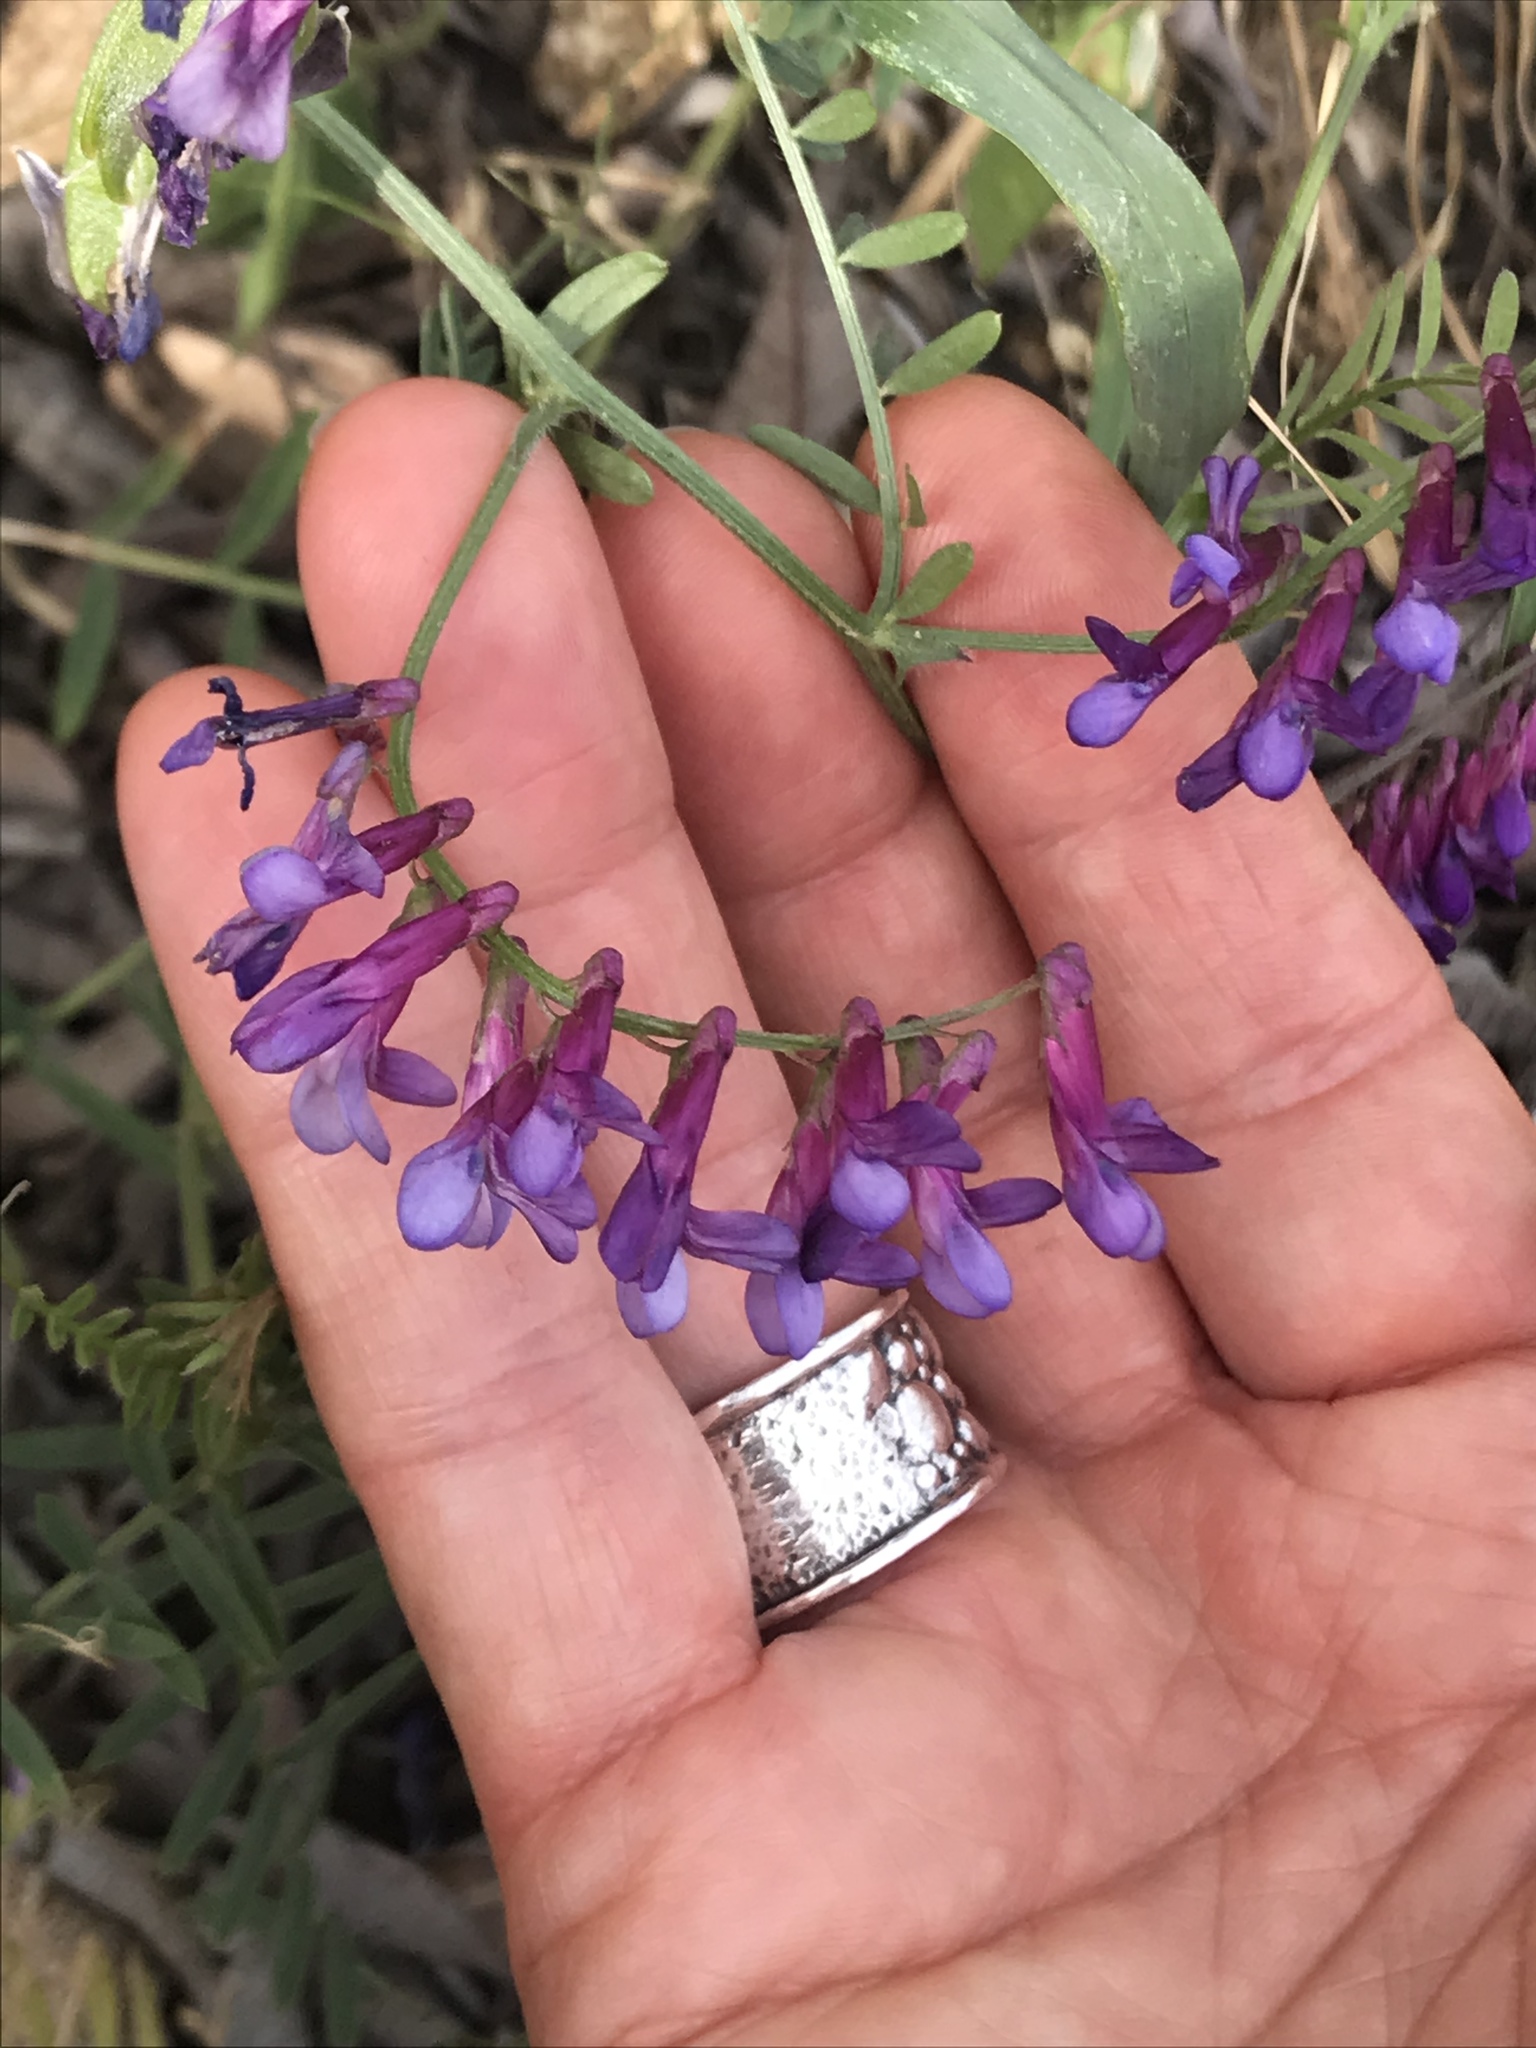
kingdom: Plantae
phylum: Tracheophyta
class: Magnoliopsida
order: Fabales
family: Fabaceae
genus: Vicia
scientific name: Vicia villosa
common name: Fodder vetch
